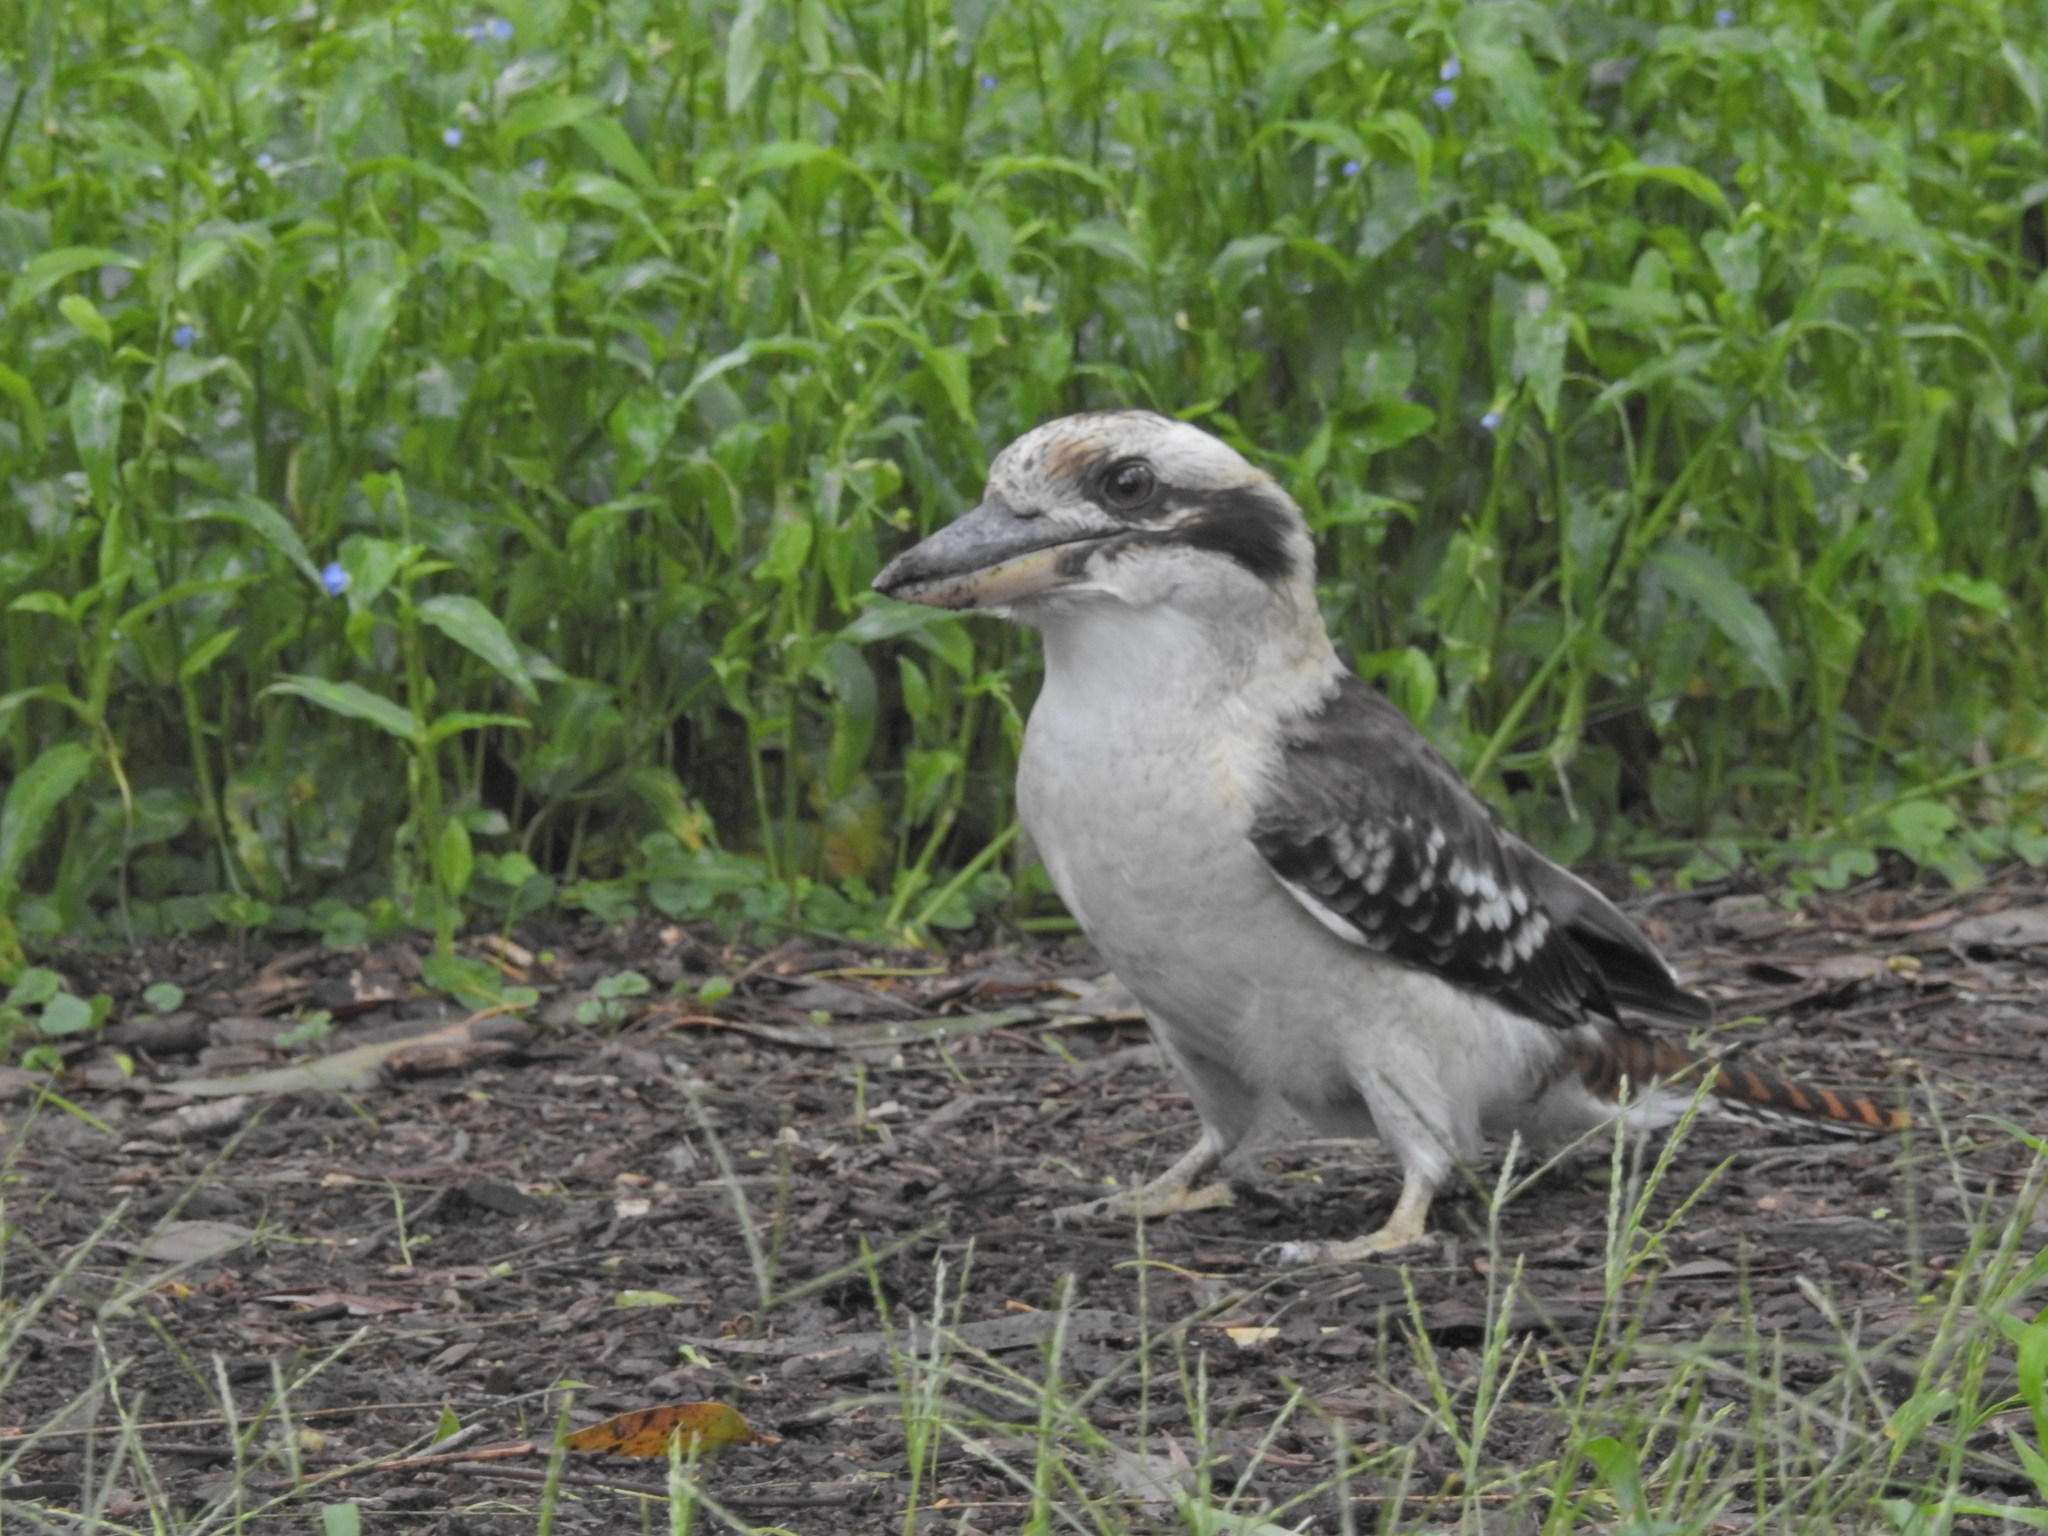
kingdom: Animalia
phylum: Chordata
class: Aves
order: Coraciiformes
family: Alcedinidae
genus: Dacelo
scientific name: Dacelo novaeguineae
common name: Laughing kookaburra
